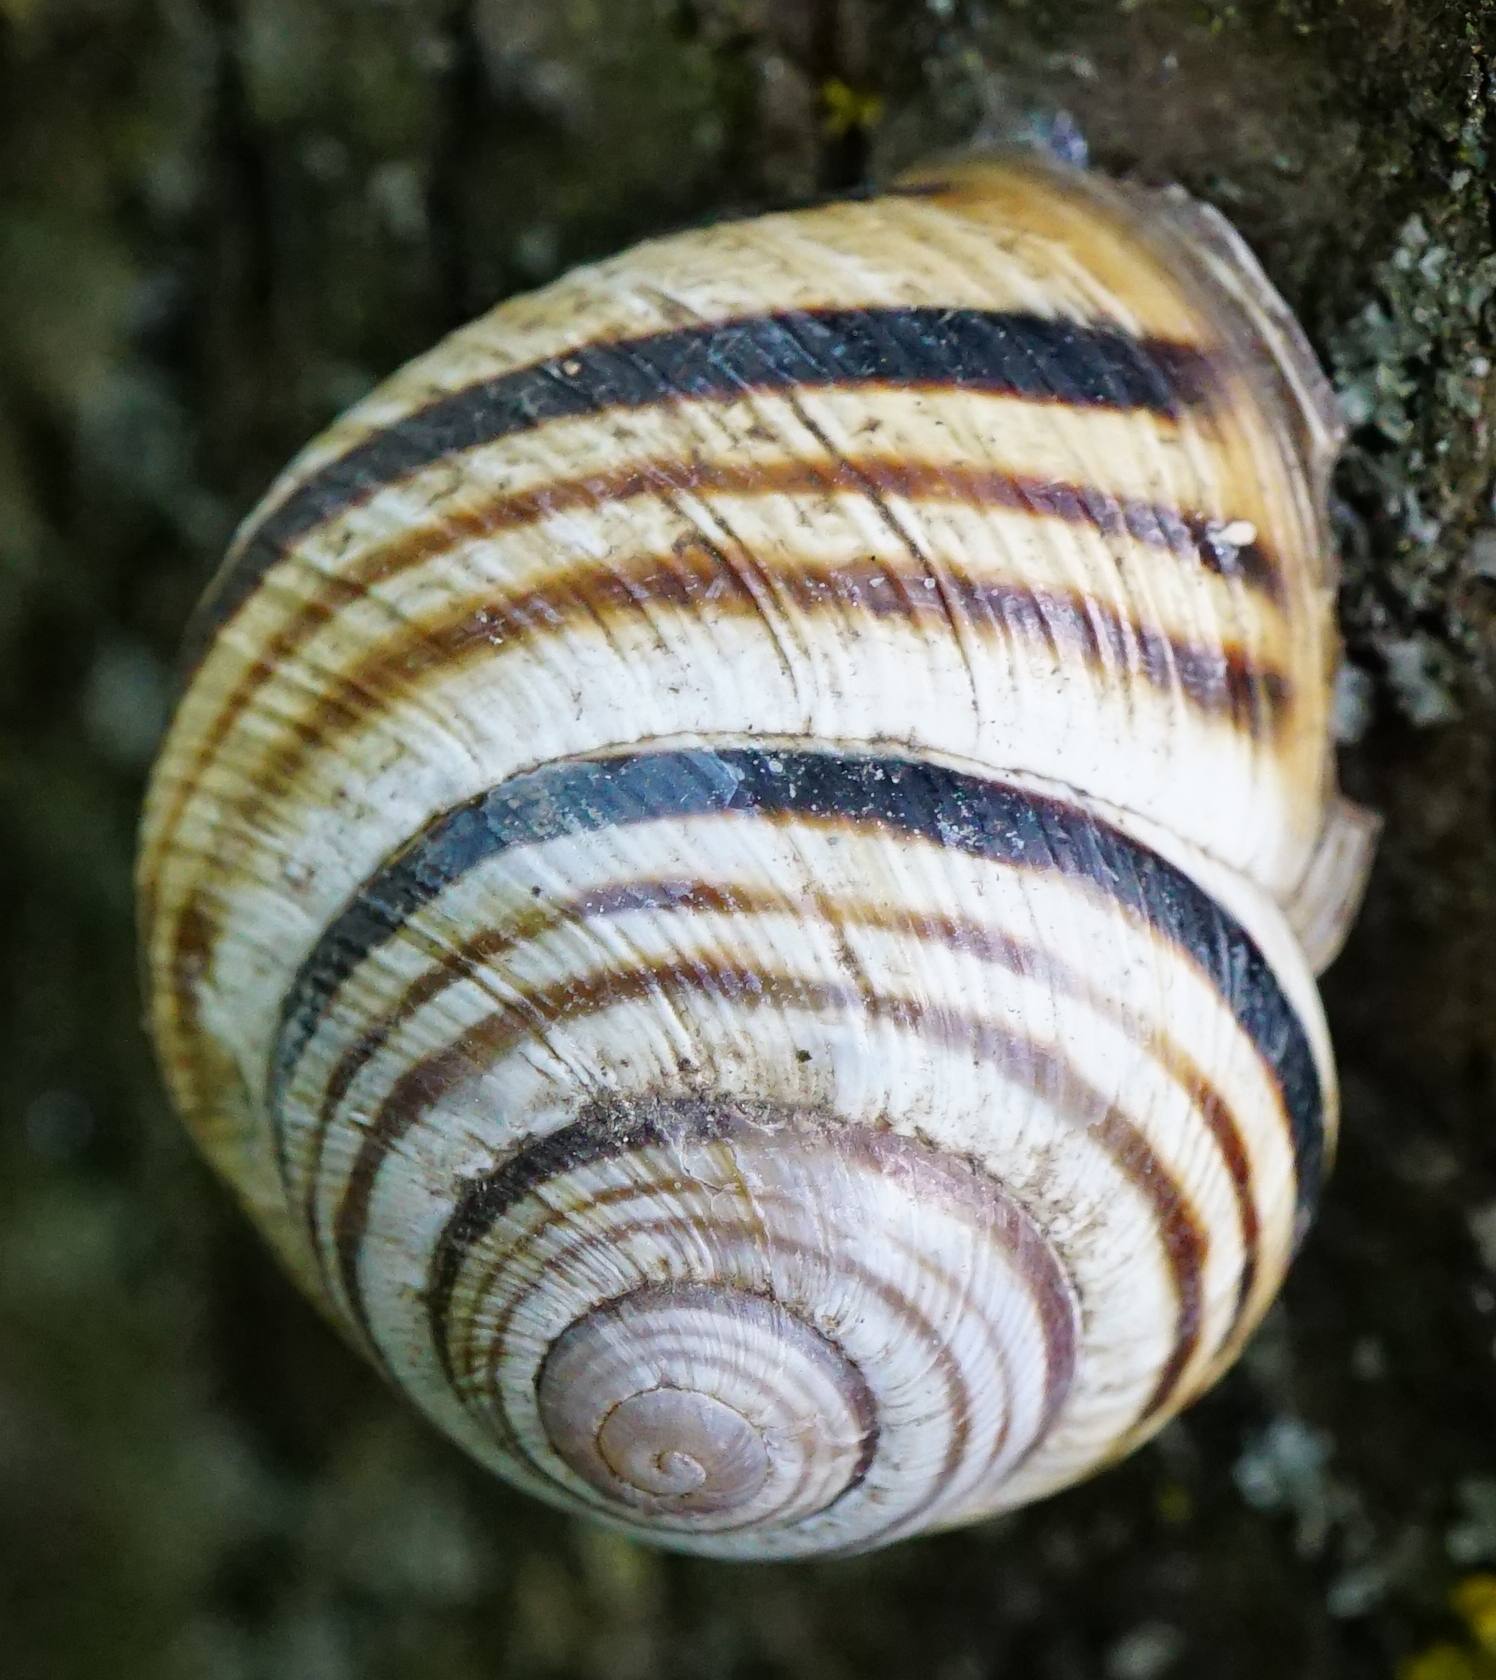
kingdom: Animalia
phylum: Mollusca
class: Gastropoda
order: Stylommatophora
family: Helicidae
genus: Caucasotachea
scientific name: Caucasotachea vindobonensis
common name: European helicid land snail
